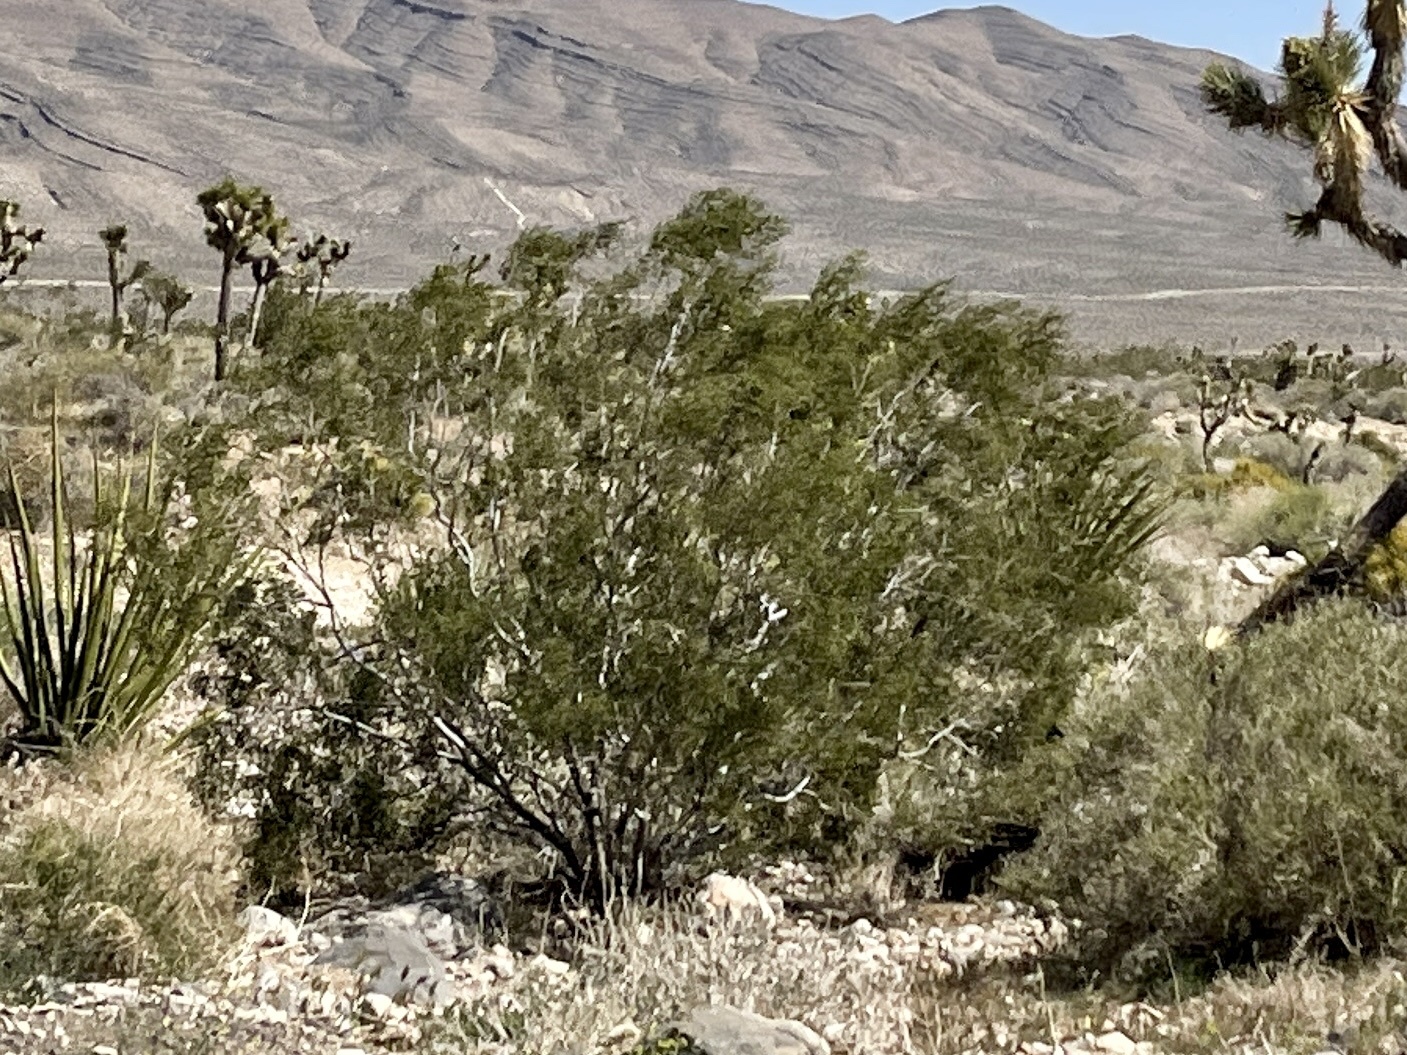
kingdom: Plantae
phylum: Tracheophyta
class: Magnoliopsida
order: Zygophyllales
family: Zygophyllaceae
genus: Larrea
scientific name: Larrea tridentata
